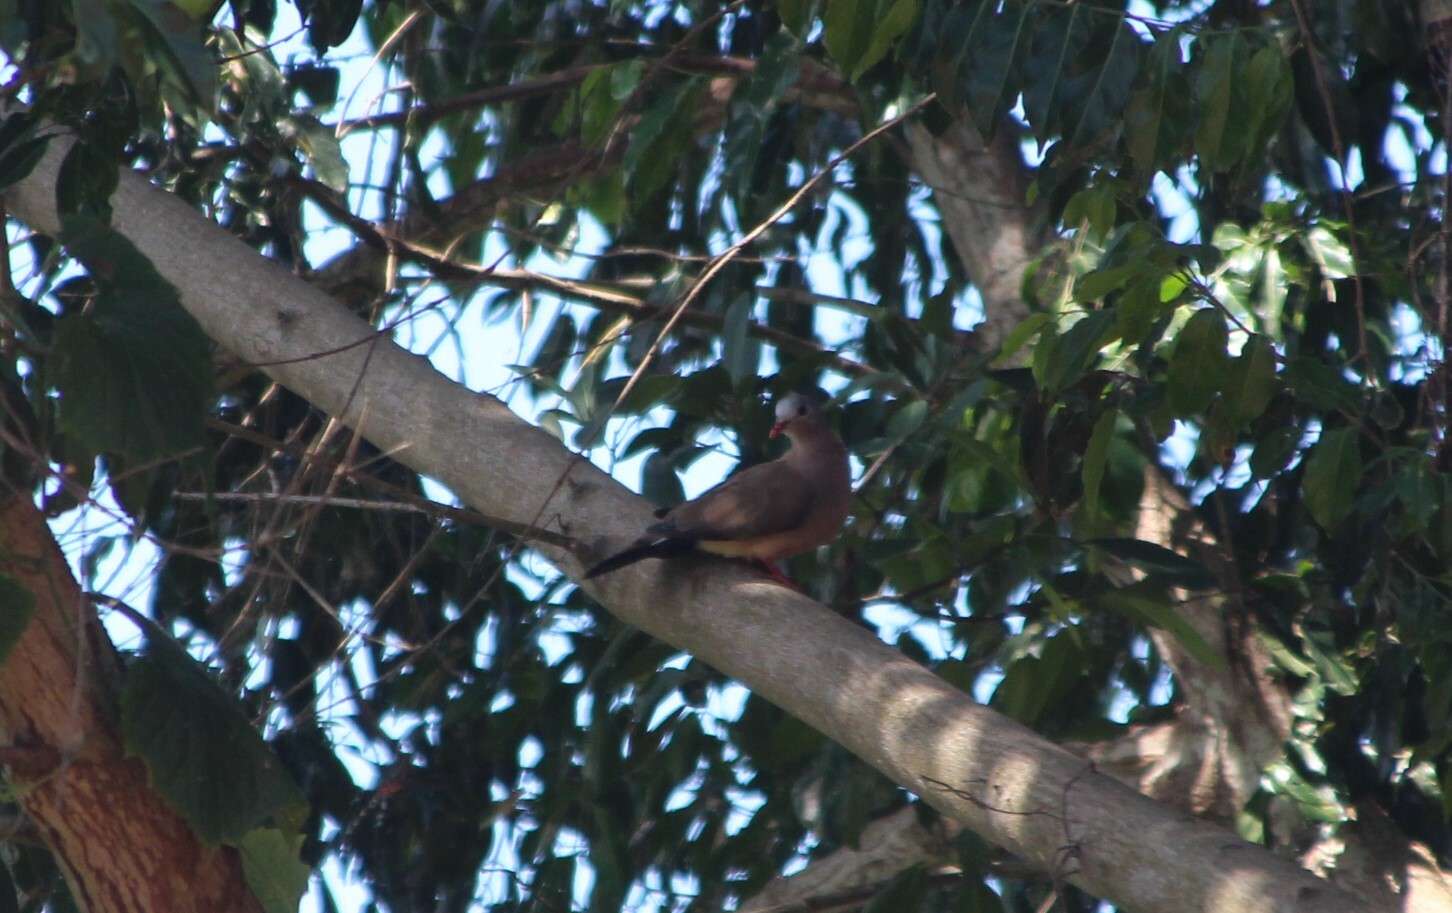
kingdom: Animalia
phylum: Chordata
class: Aves
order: Columbiformes
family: Columbidae
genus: Turtur
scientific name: Turtur afer
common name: Blue-spotted wood dove
